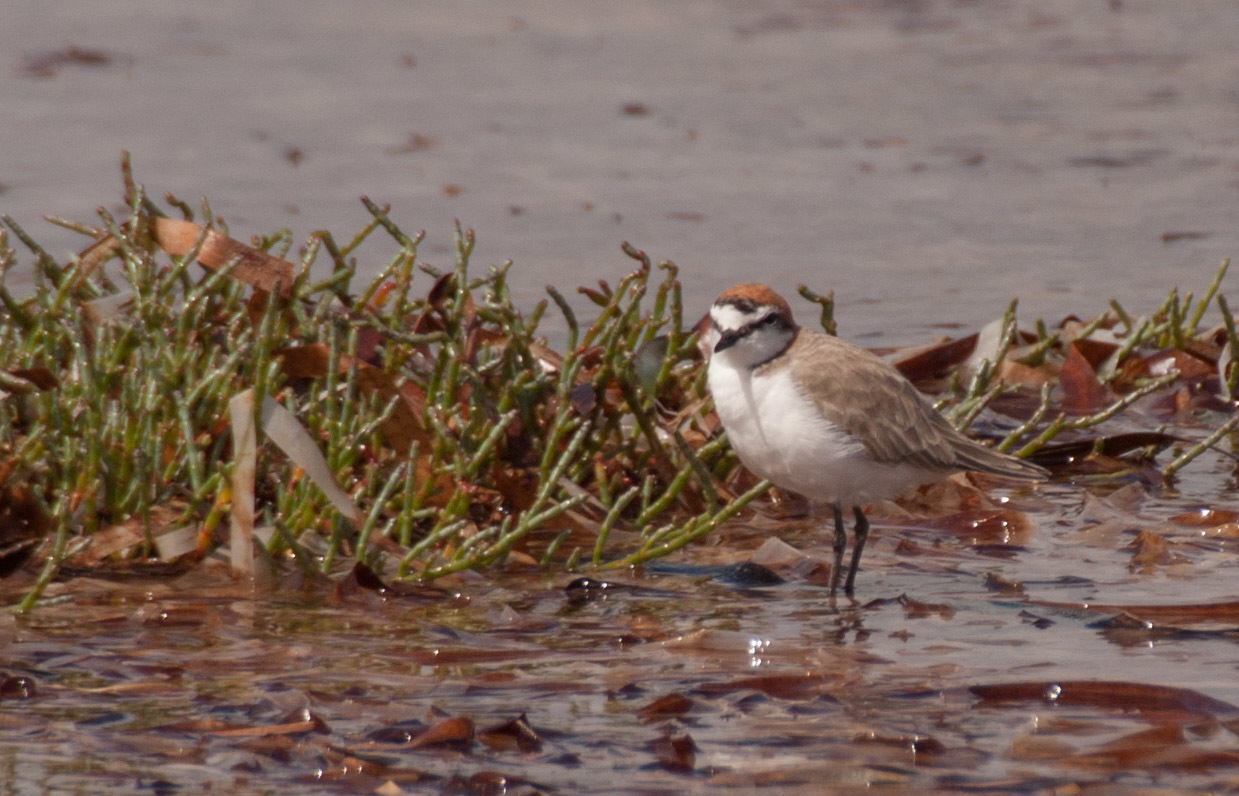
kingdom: Animalia
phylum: Chordata
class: Aves
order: Charadriiformes
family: Charadriidae
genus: Anarhynchus
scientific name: Anarhynchus
